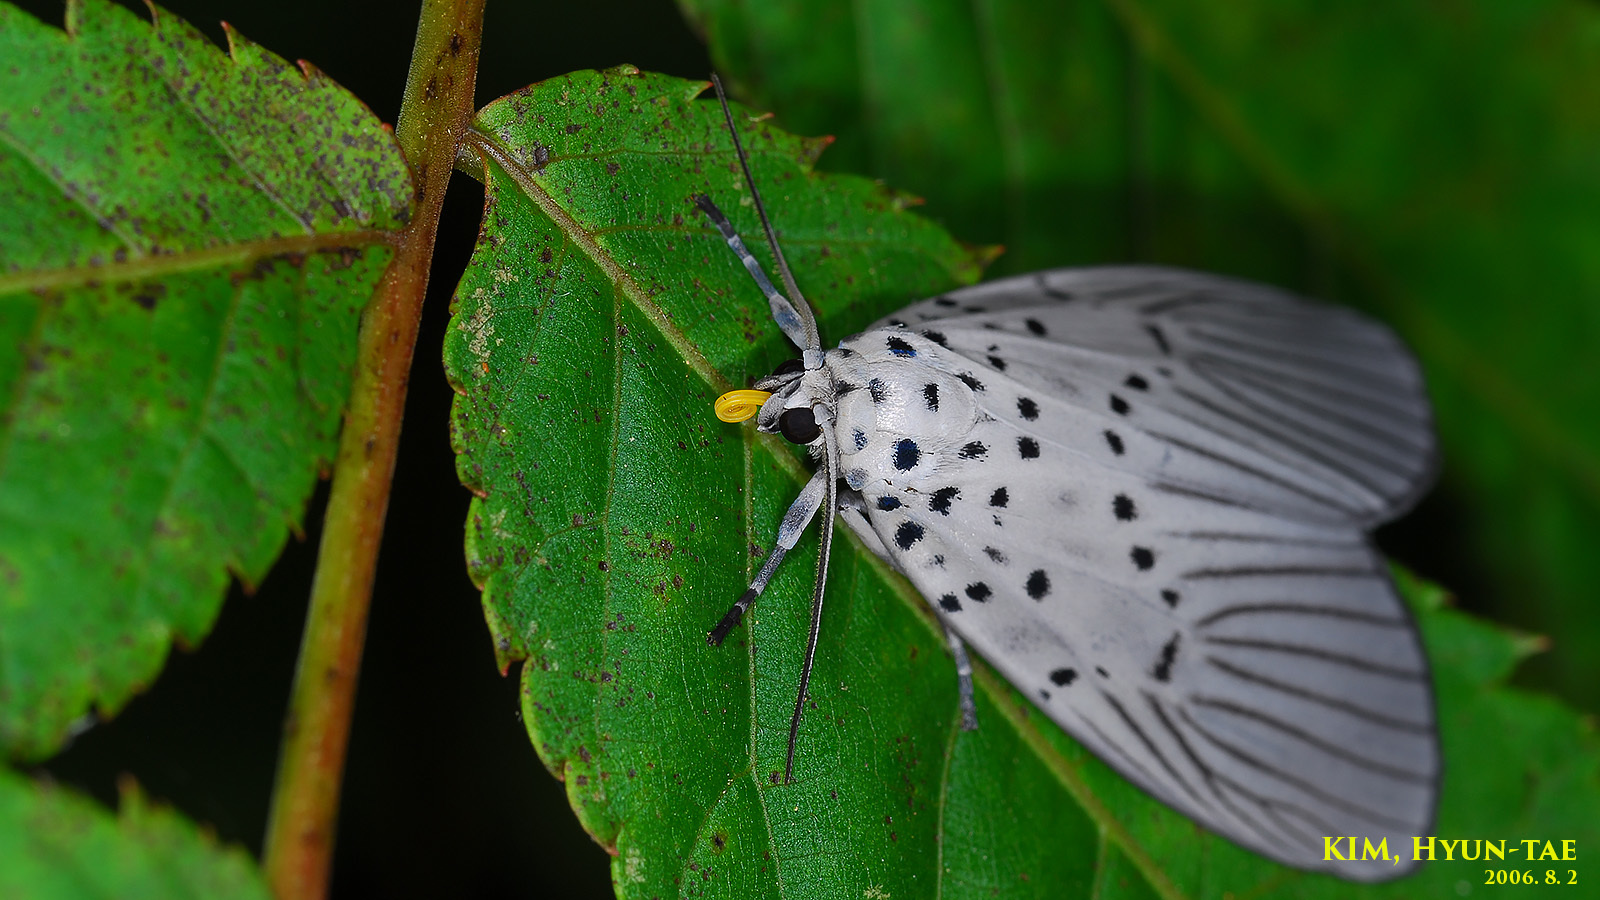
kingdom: Animalia
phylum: Arthropoda
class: Insecta
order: Lepidoptera
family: Nolidae
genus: Agrisius
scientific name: Agrisius fuliginosus
